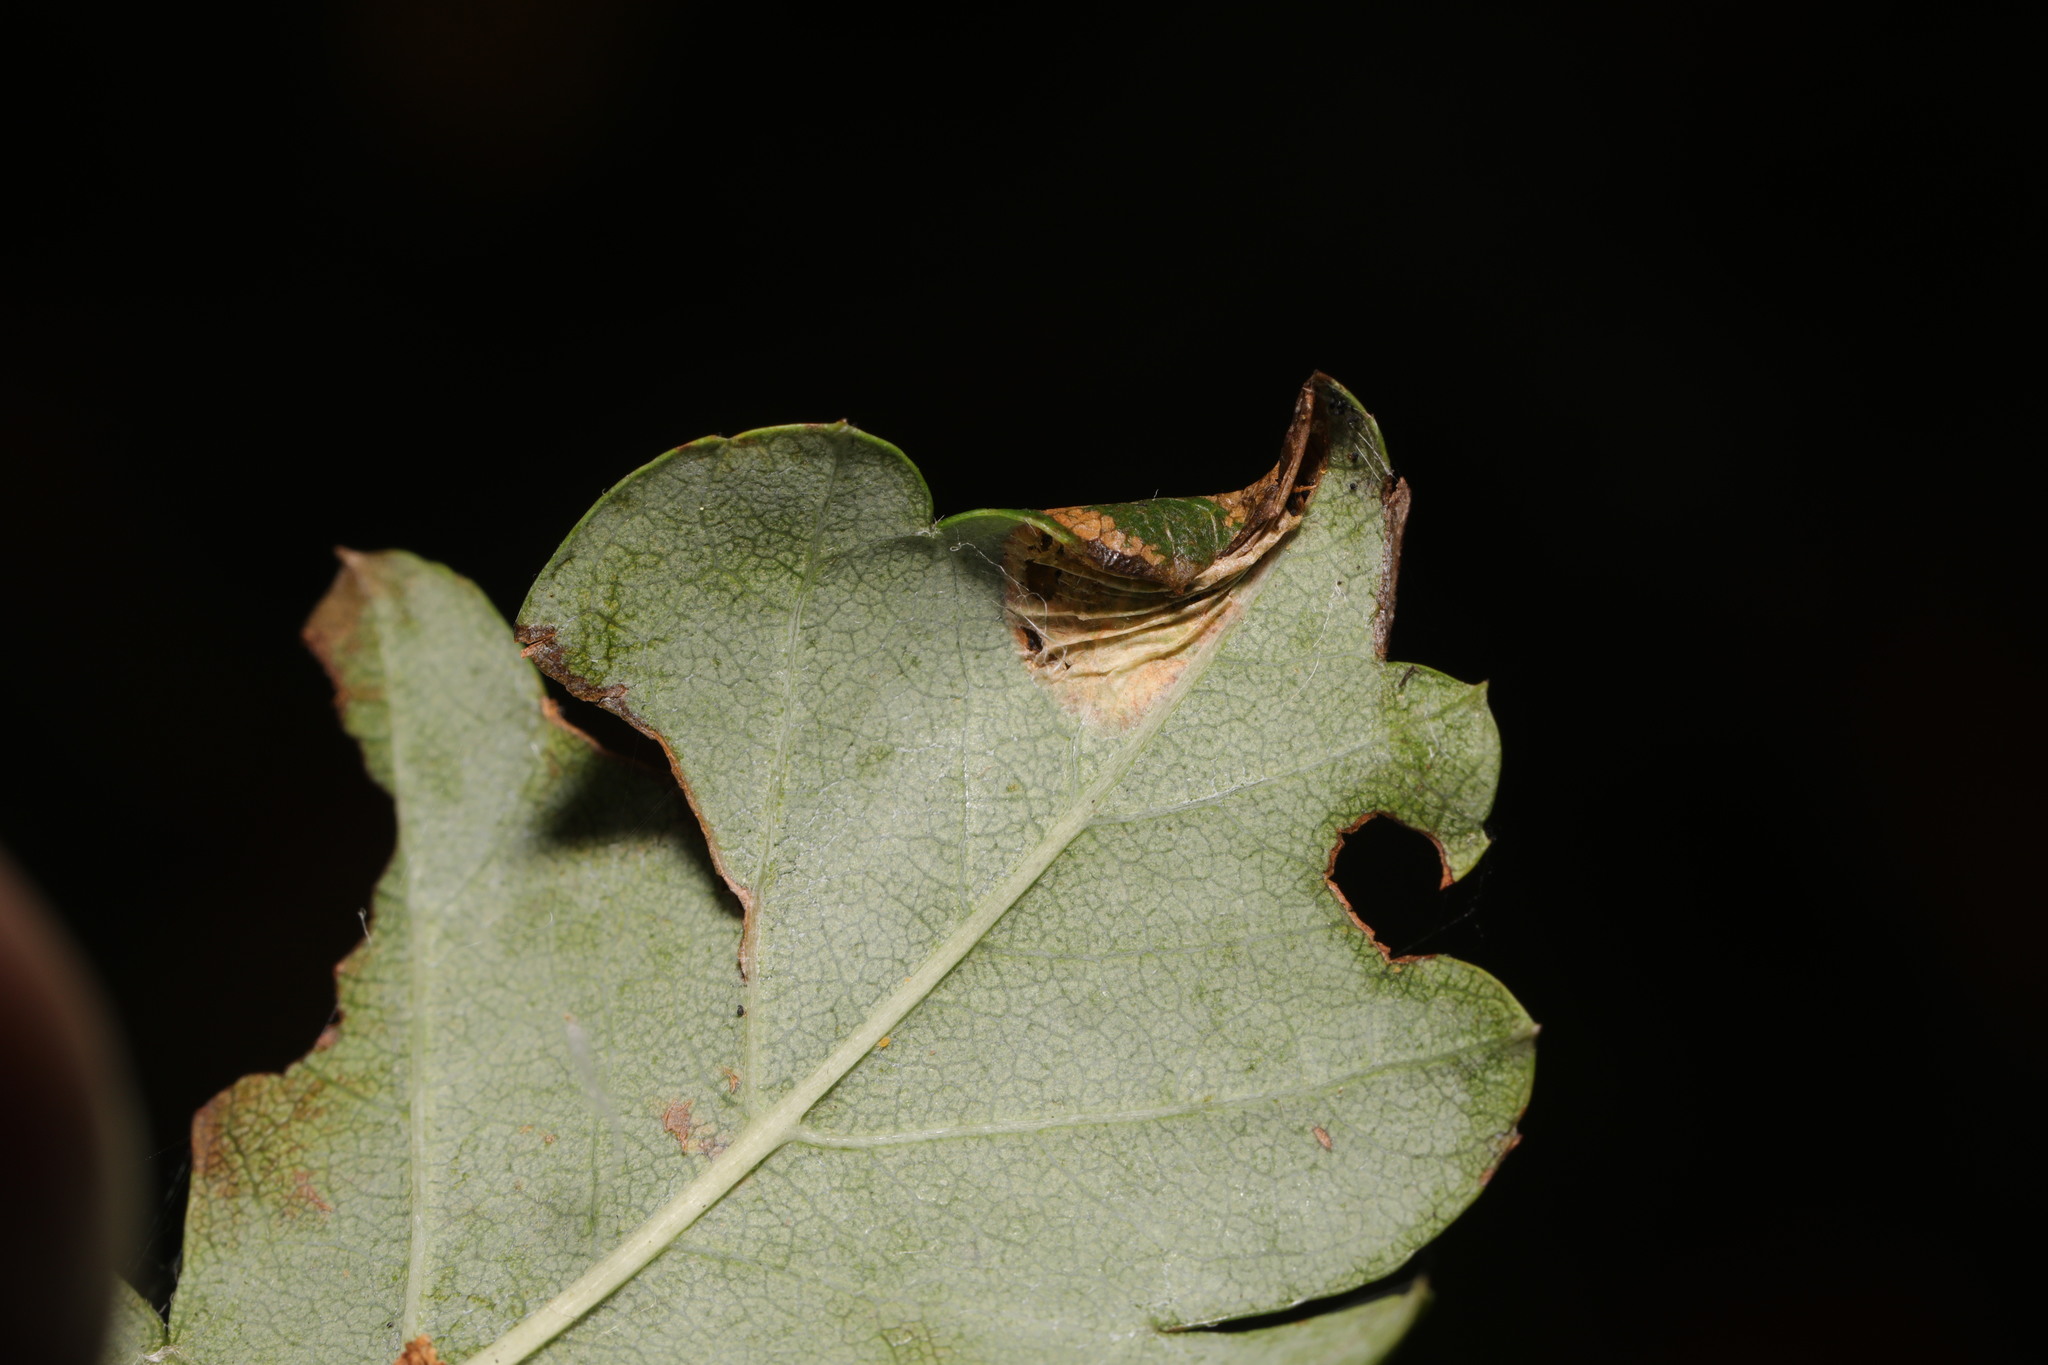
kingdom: Animalia
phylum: Arthropoda
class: Insecta
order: Lepidoptera
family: Gracillariidae
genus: Parornix
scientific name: Parornix anglicella
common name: Hawthorn slender
